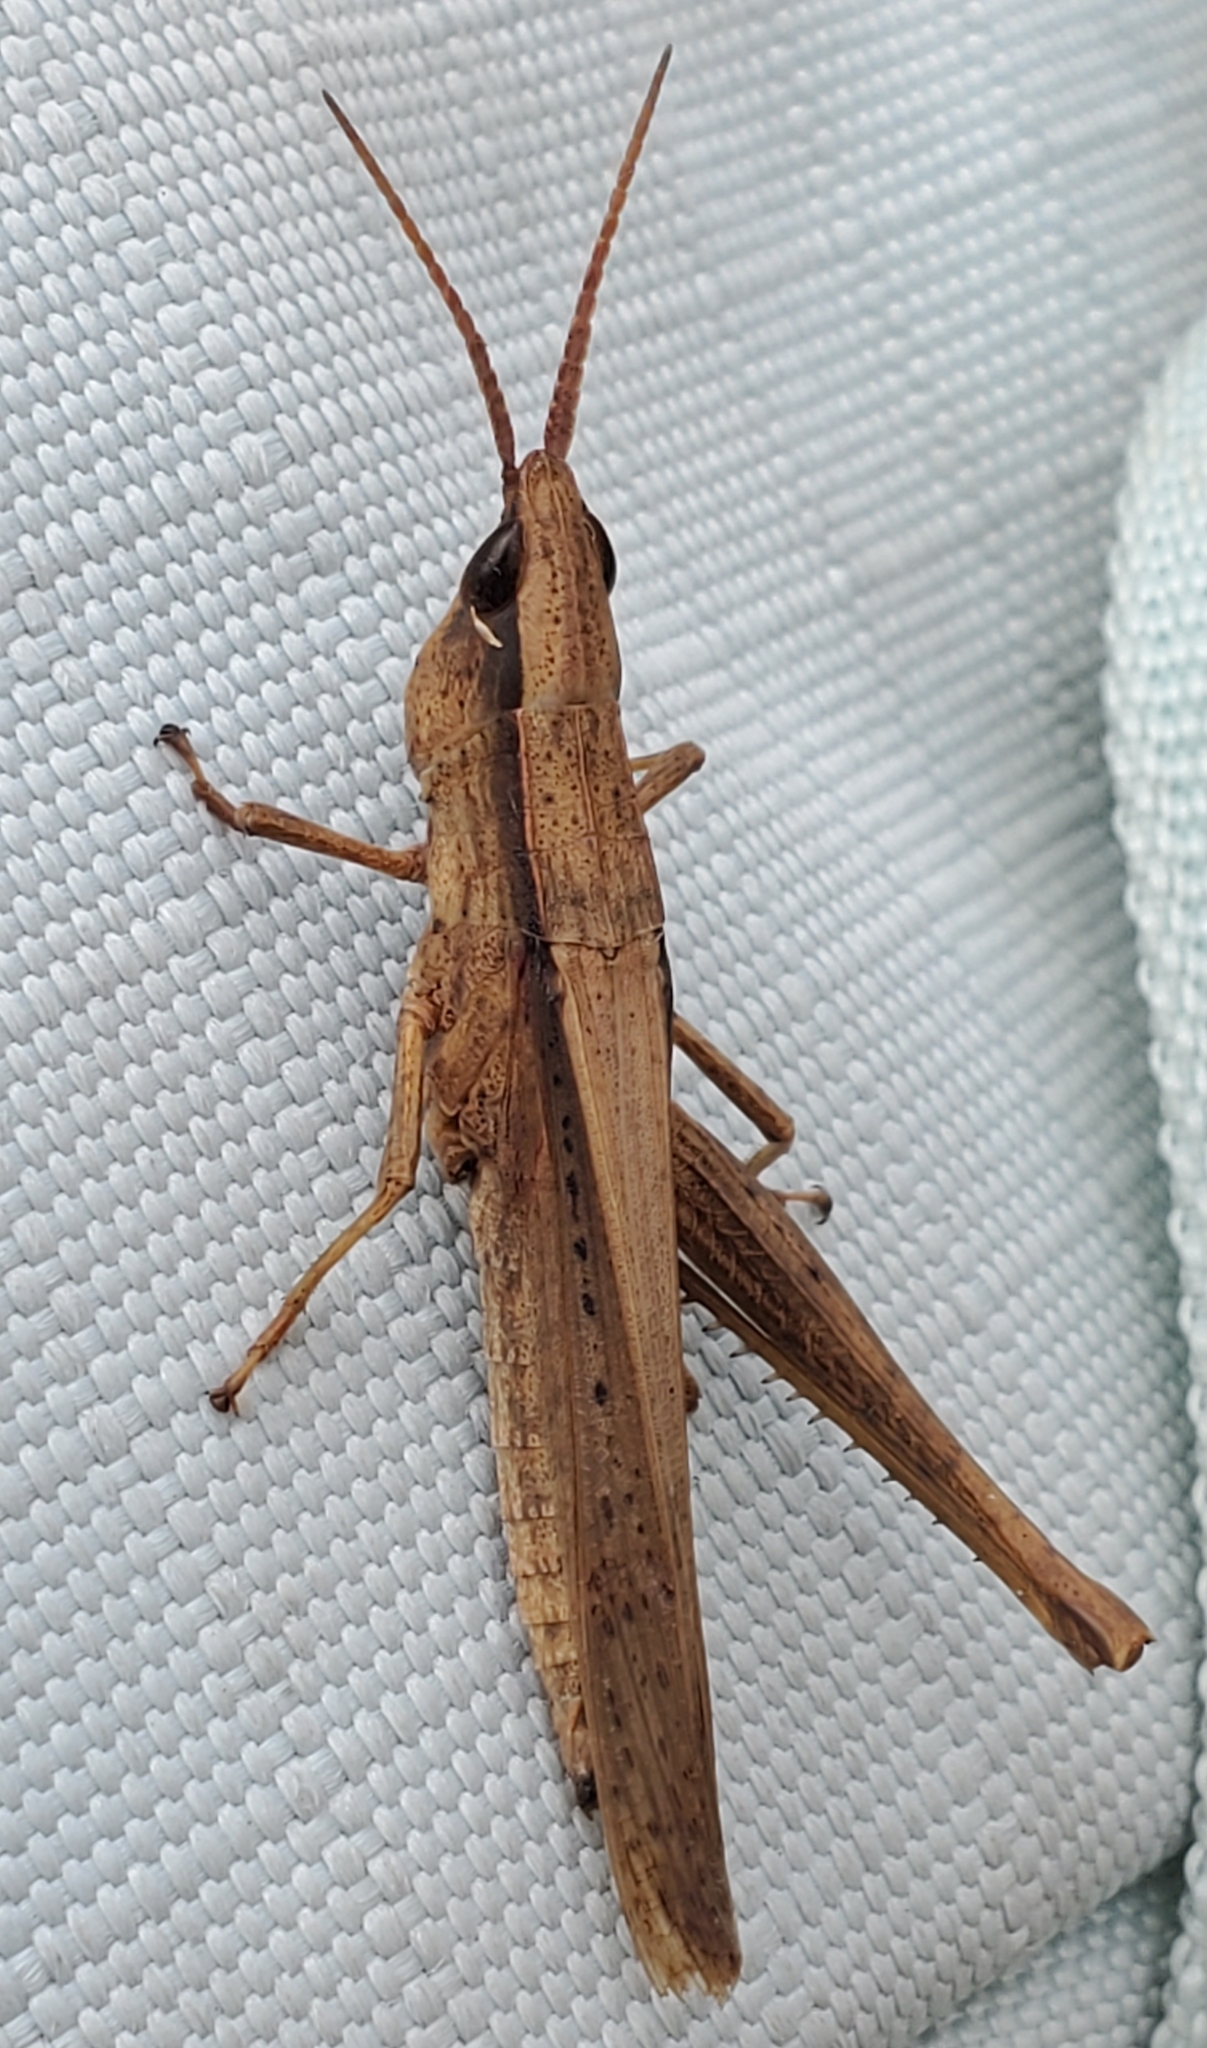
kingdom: Animalia
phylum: Arthropoda
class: Insecta
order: Orthoptera
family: Acrididae
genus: Metaleptea
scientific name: Metaleptea brevicornis
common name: Clipped-wing grasshopper
